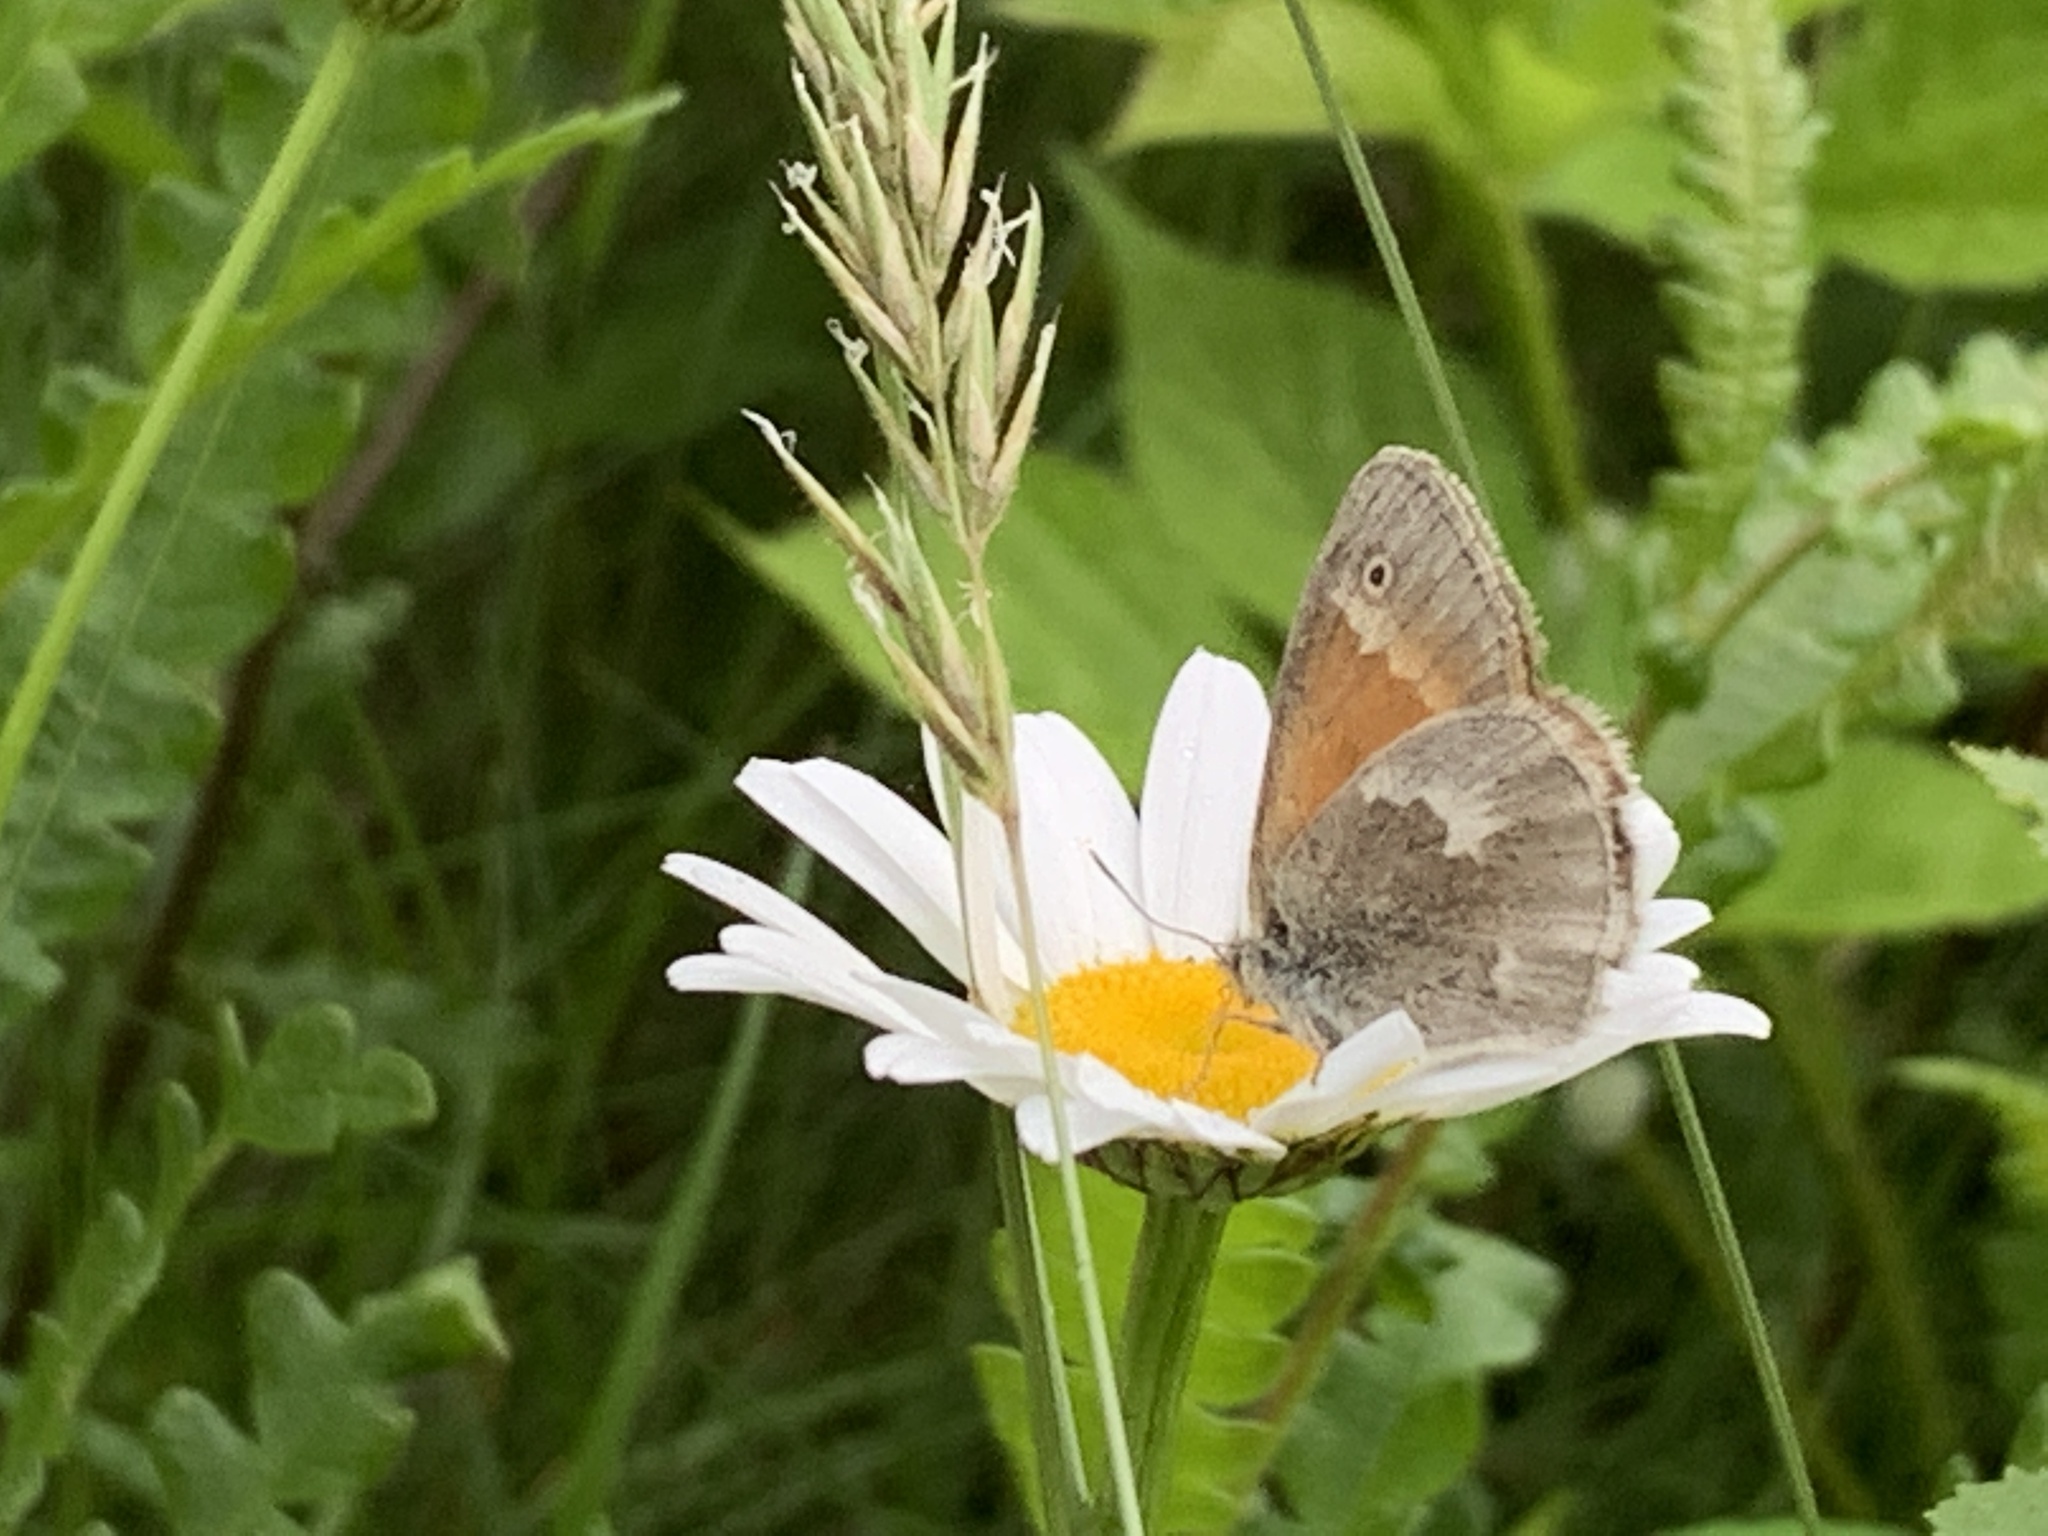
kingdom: Animalia
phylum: Arthropoda
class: Insecta
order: Lepidoptera
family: Nymphalidae
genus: Coenonympha
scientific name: Coenonympha california
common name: Common ringlet
